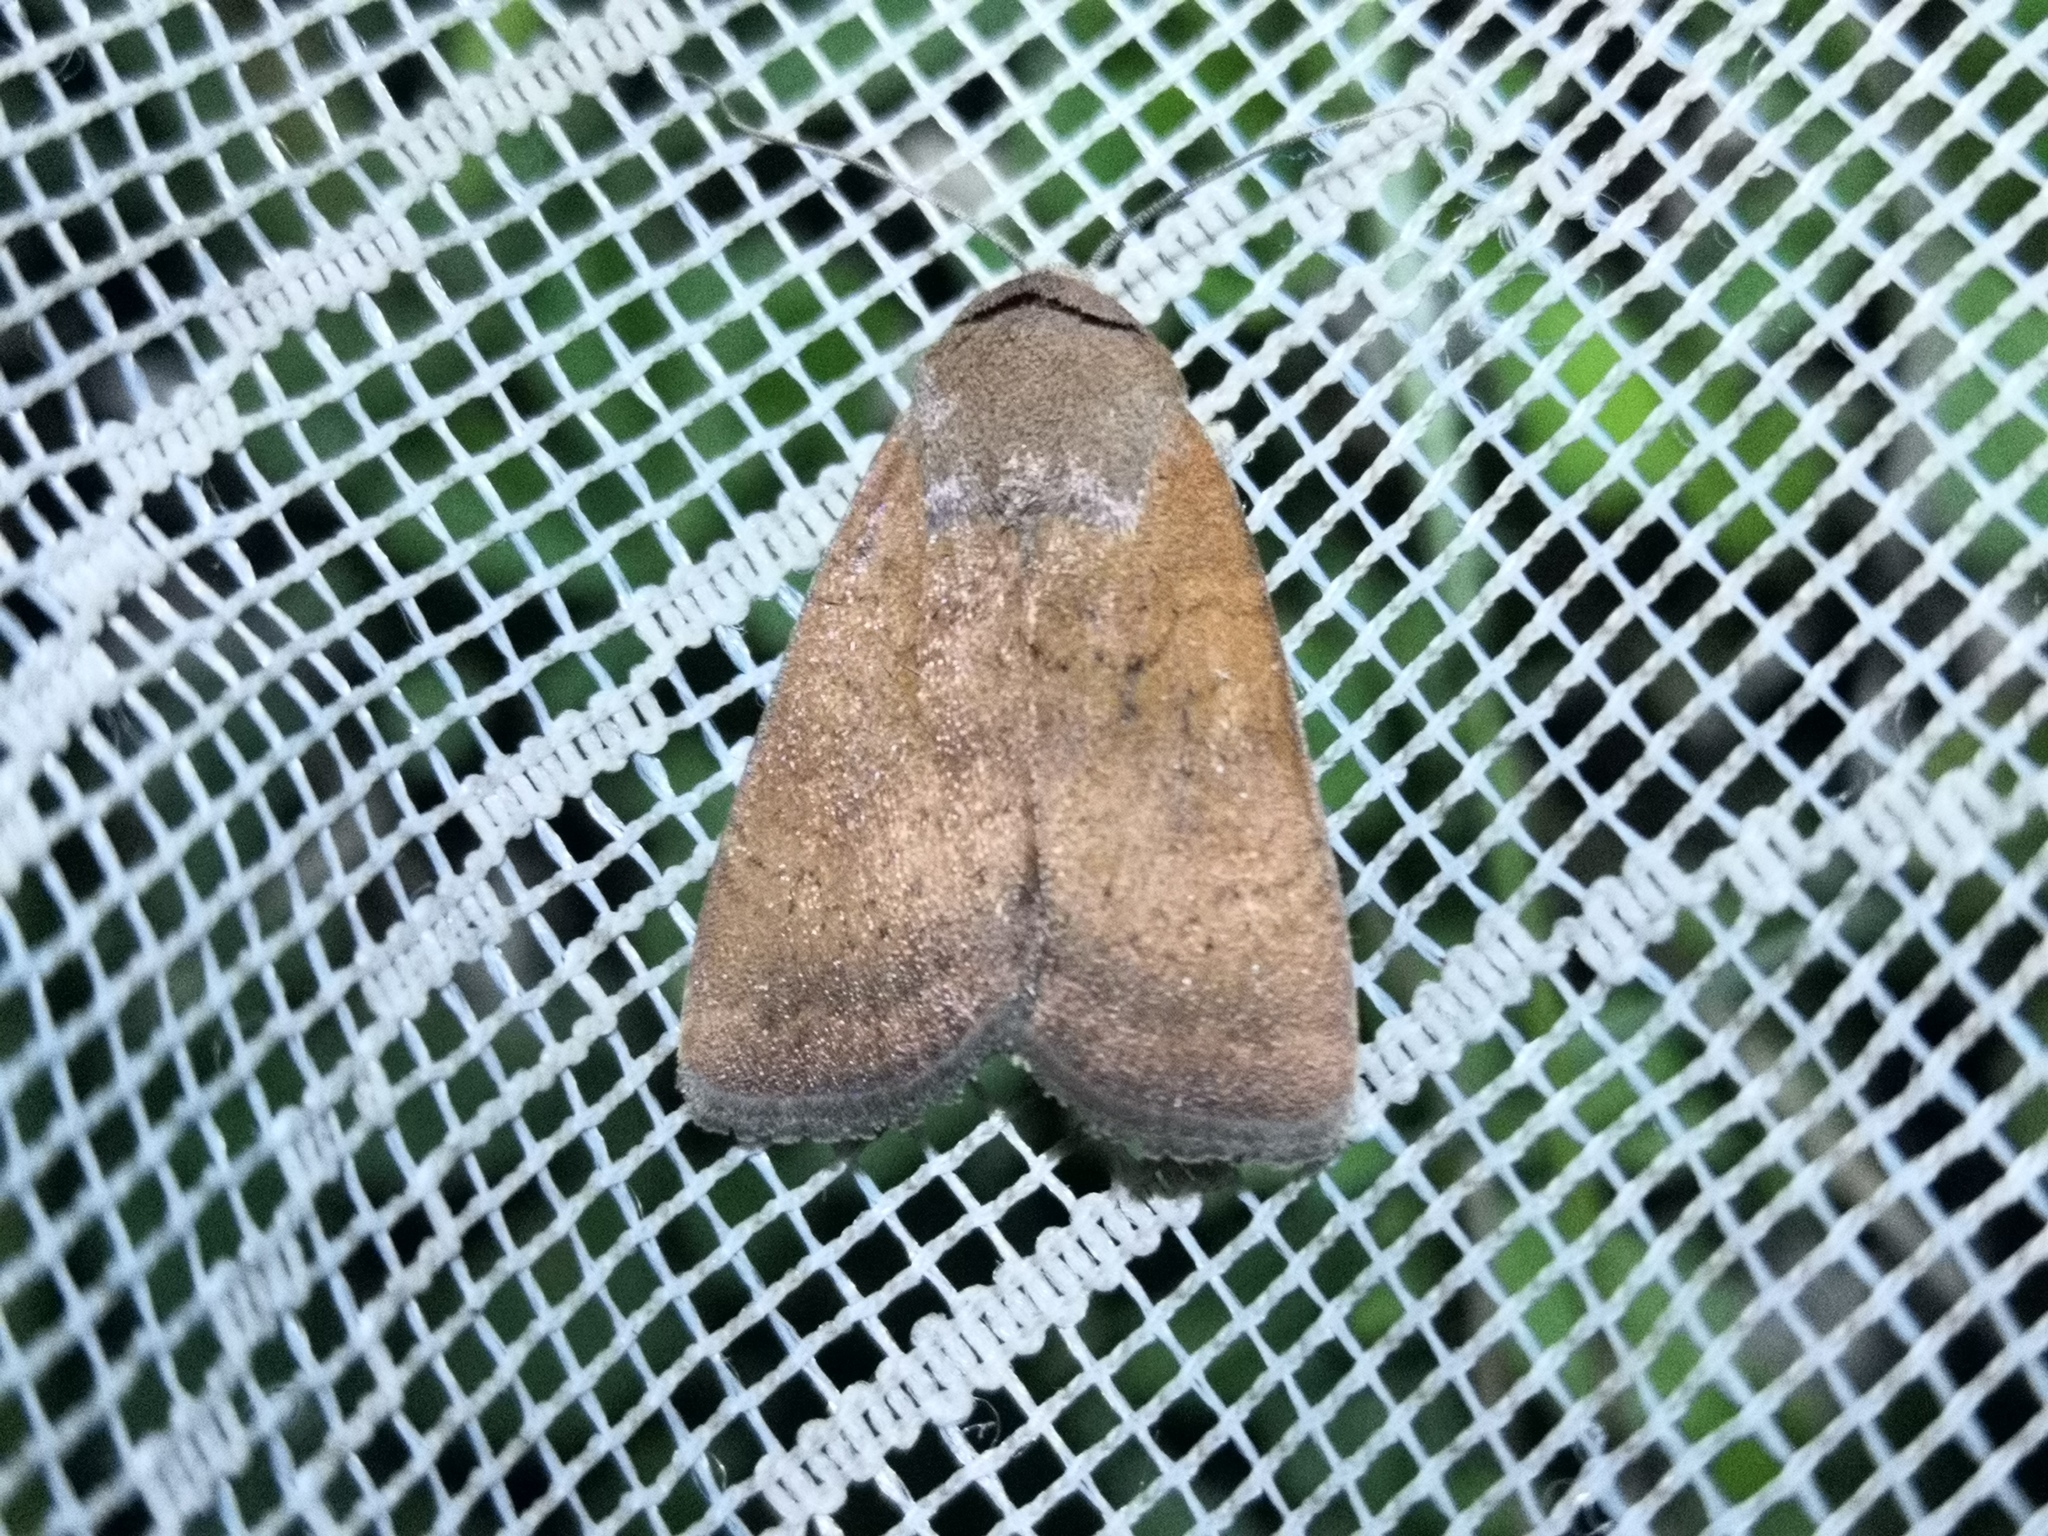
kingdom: Animalia
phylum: Arthropoda
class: Insecta
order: Lepidoptera
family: Noctuidae
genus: Noctua
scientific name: Noctua interjecta
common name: Least yellow underwing
